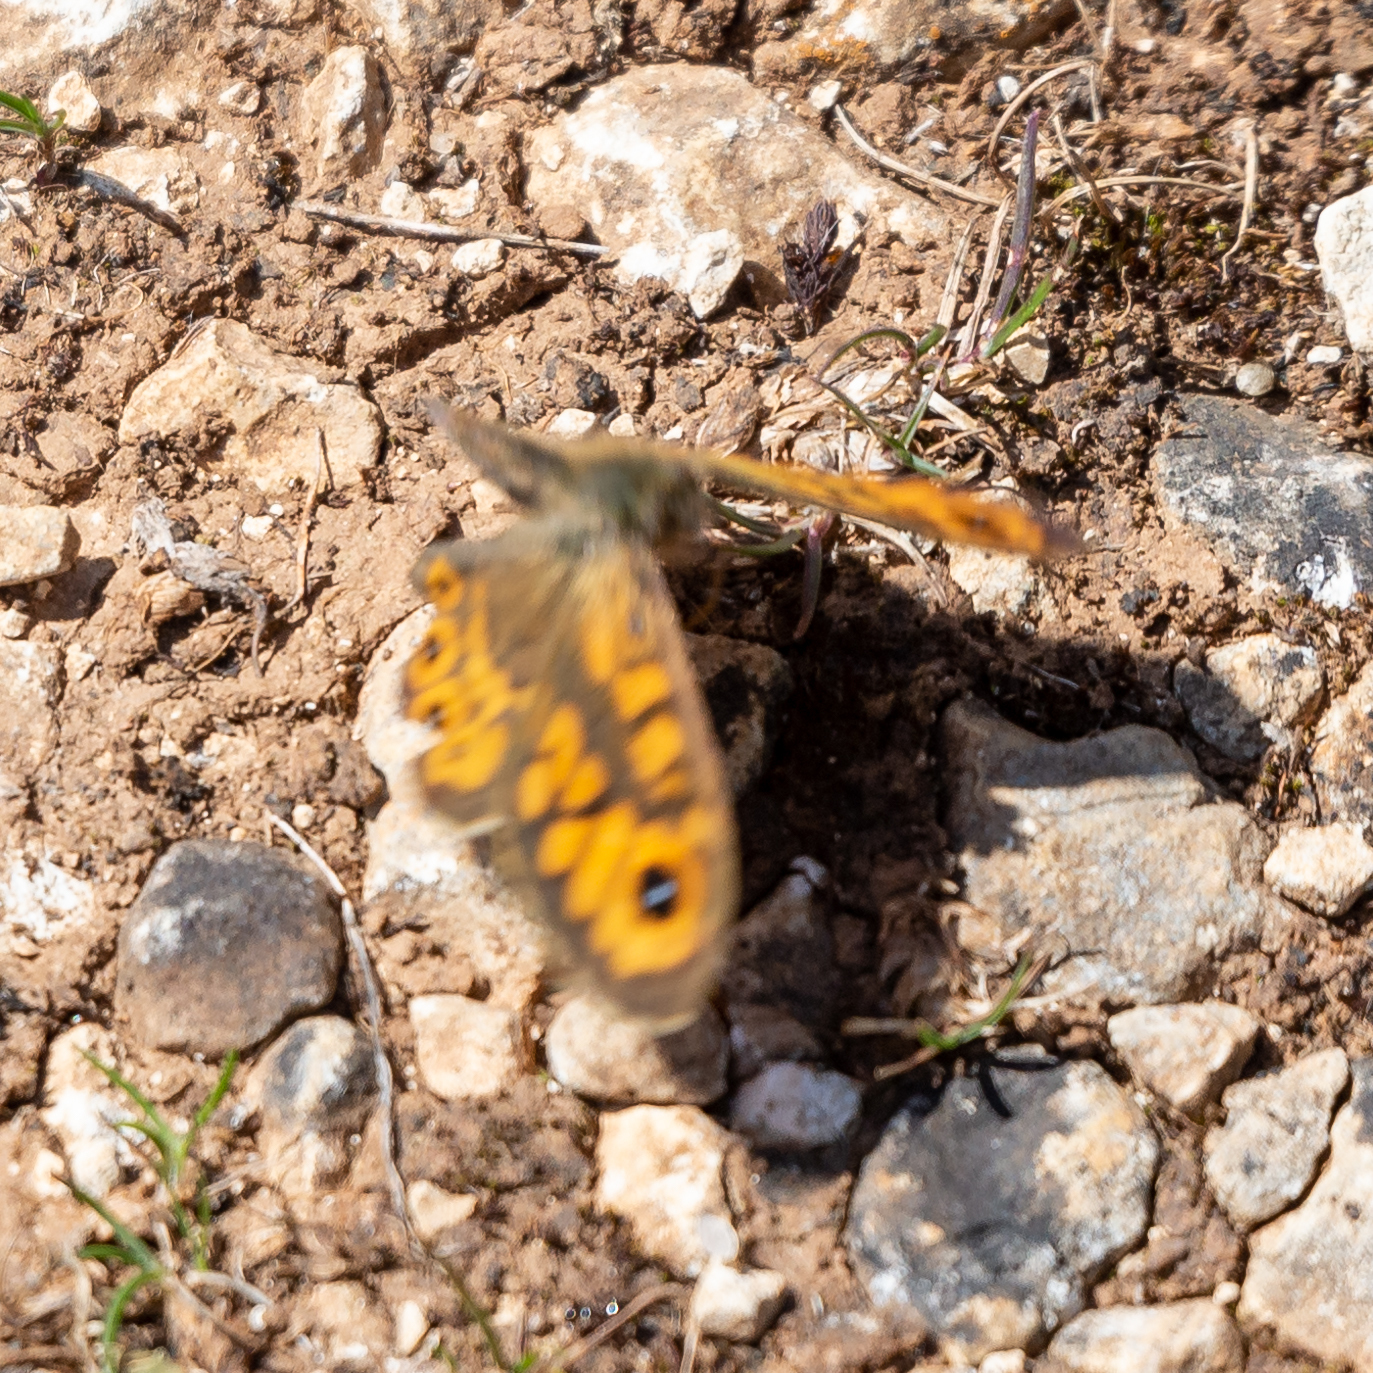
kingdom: Animalia
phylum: Arthropoda
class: Insecta
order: Lepidoptera
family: Nymphalidae
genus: Pararge
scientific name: Pararge Lasiommata megera
